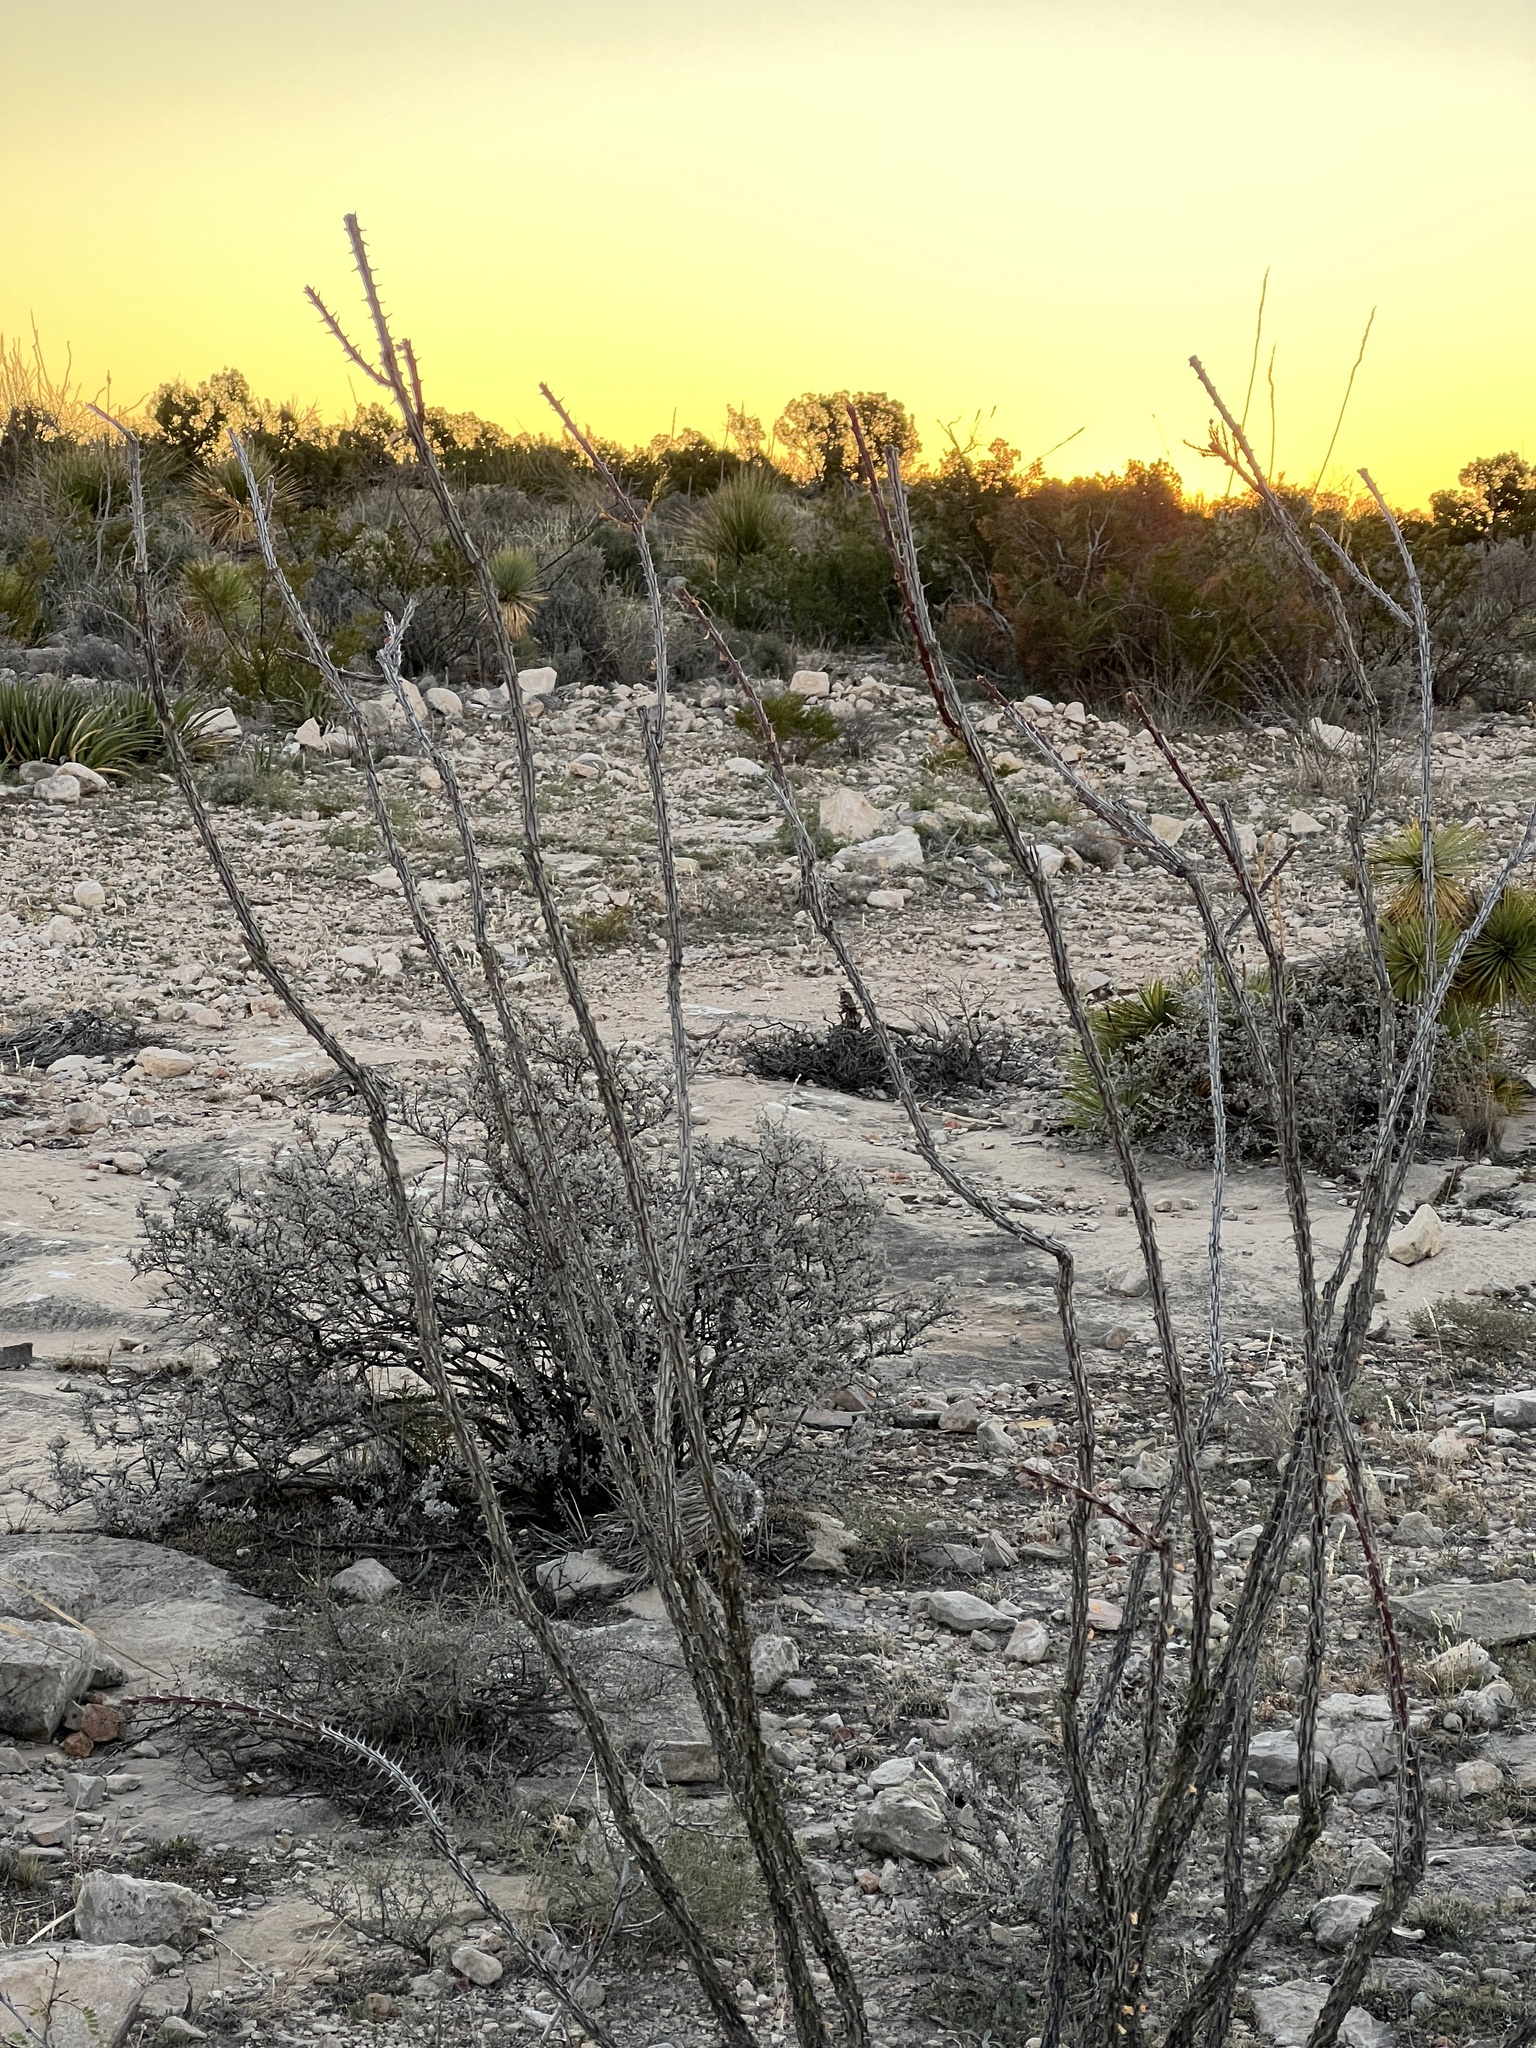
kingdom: Plantae
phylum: Tracheophyta
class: Magnoliopsida
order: Ericales
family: Fouquieriaceae
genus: Fouquieria
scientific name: Fouquieria splendens
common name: Vine-cactus
